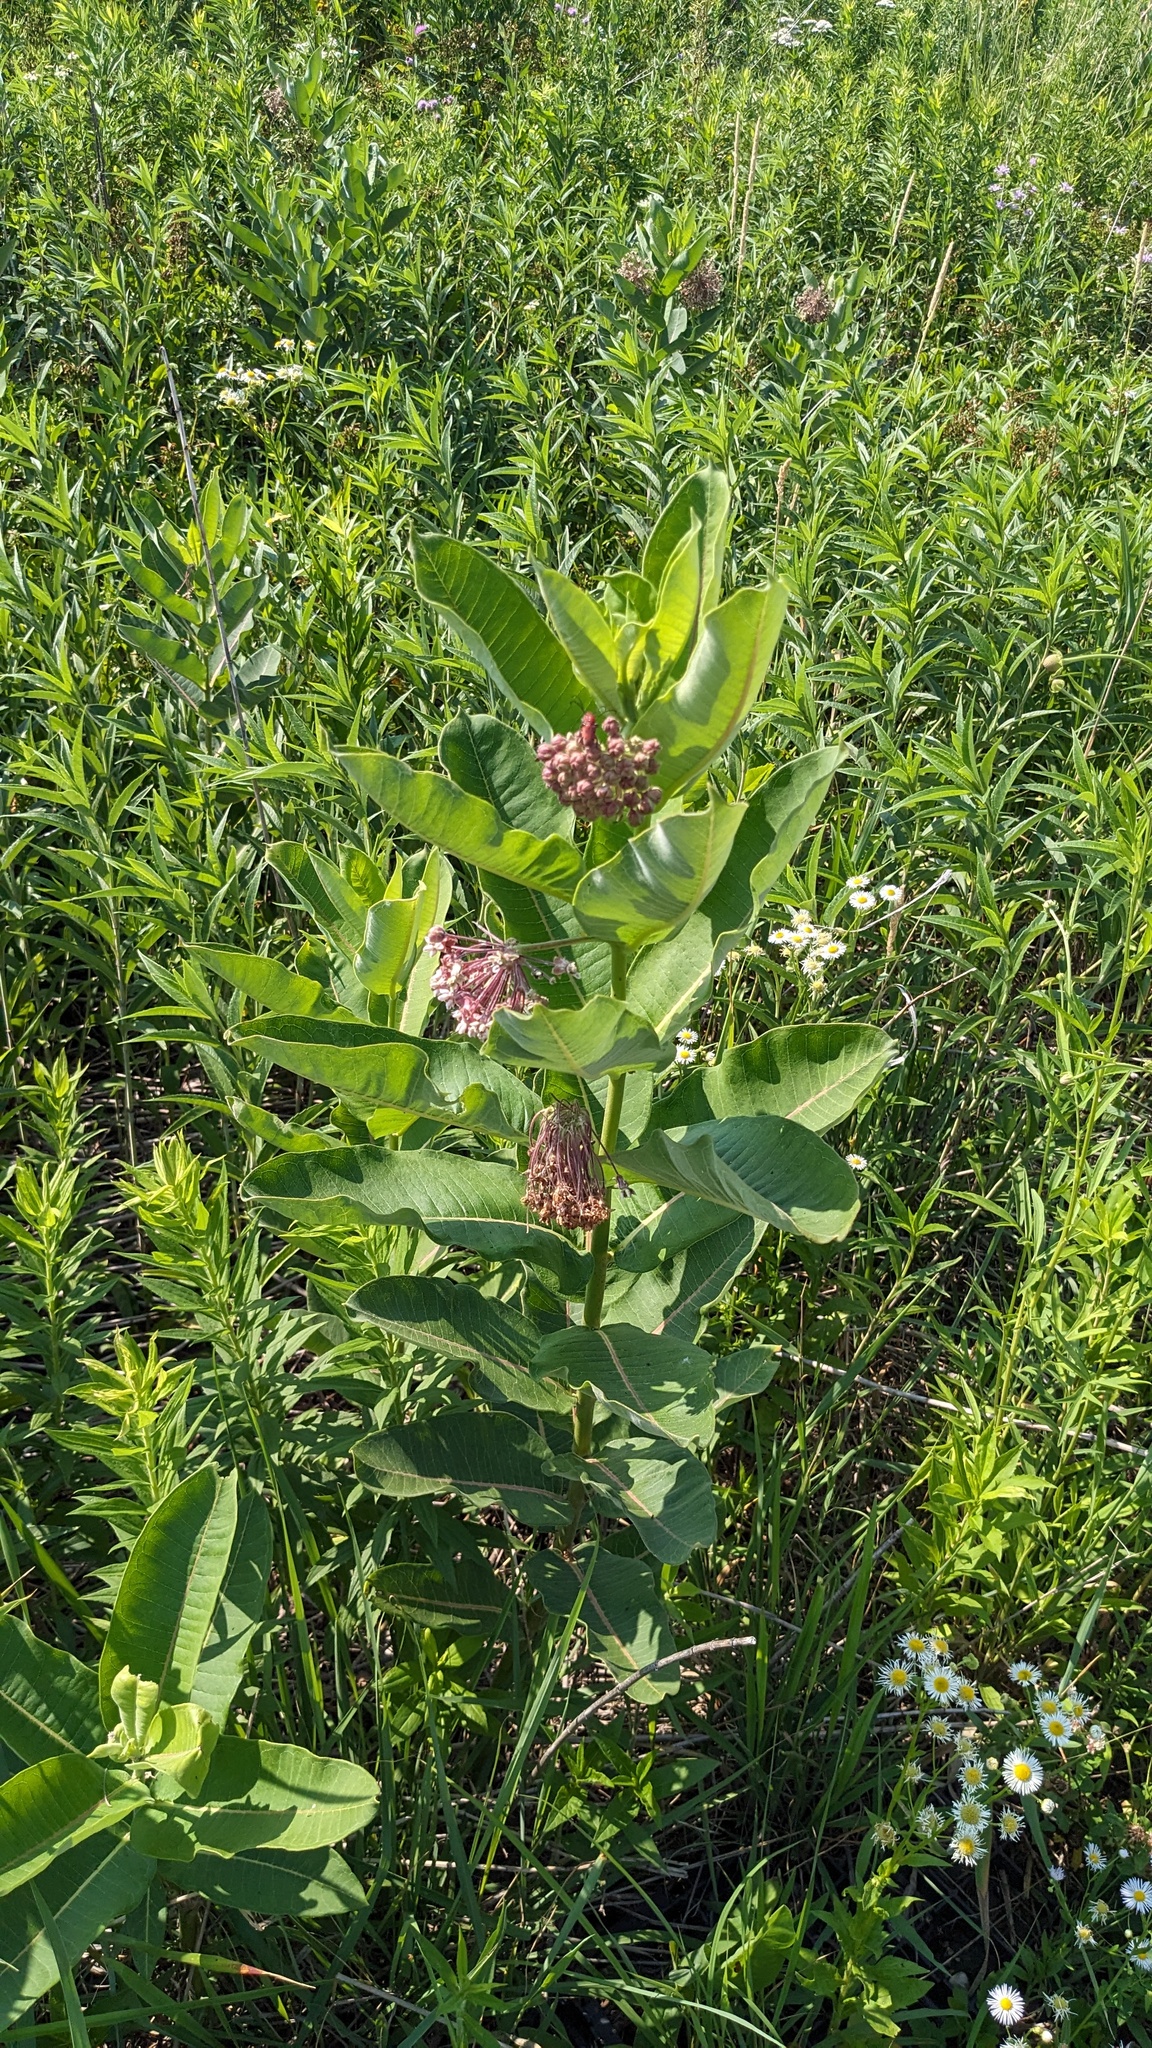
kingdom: Plantae
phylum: Tracheophyta
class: Magnoliopsida
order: Gentianales
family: Apocynaceae
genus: Asclepias
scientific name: Asclepias syriaca
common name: Common milkweed
